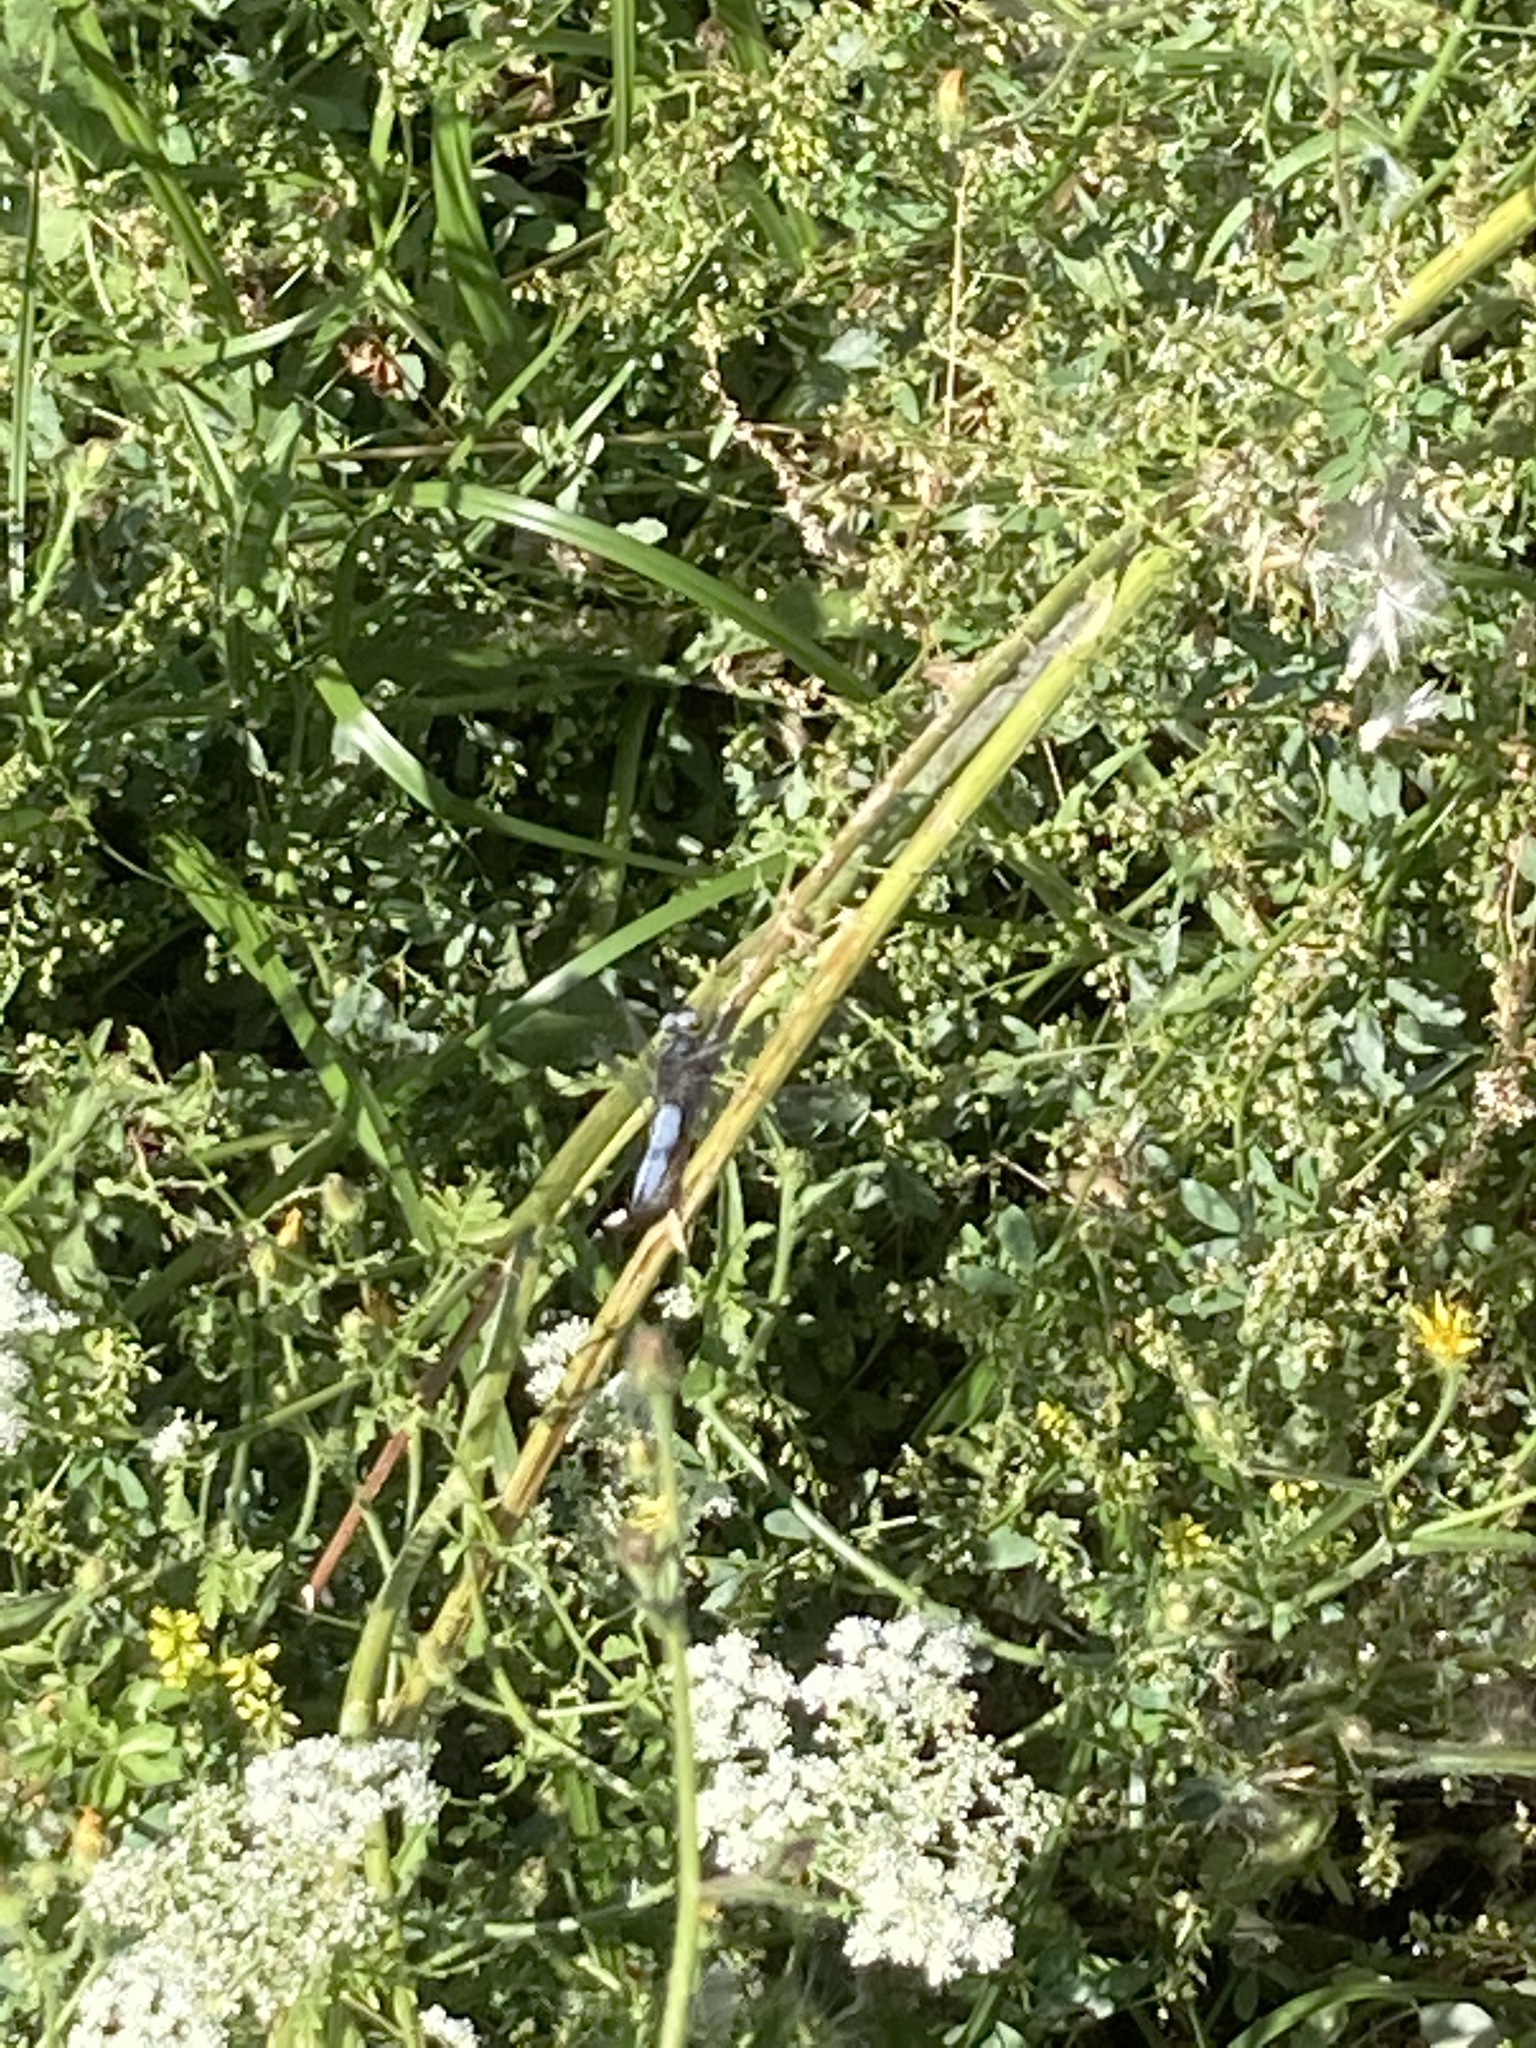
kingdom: Animalia
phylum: Arthropoda
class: Insecta
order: Odonata
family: Libellulidae
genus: Libellula
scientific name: Libellula fulva
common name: Blue chaser
